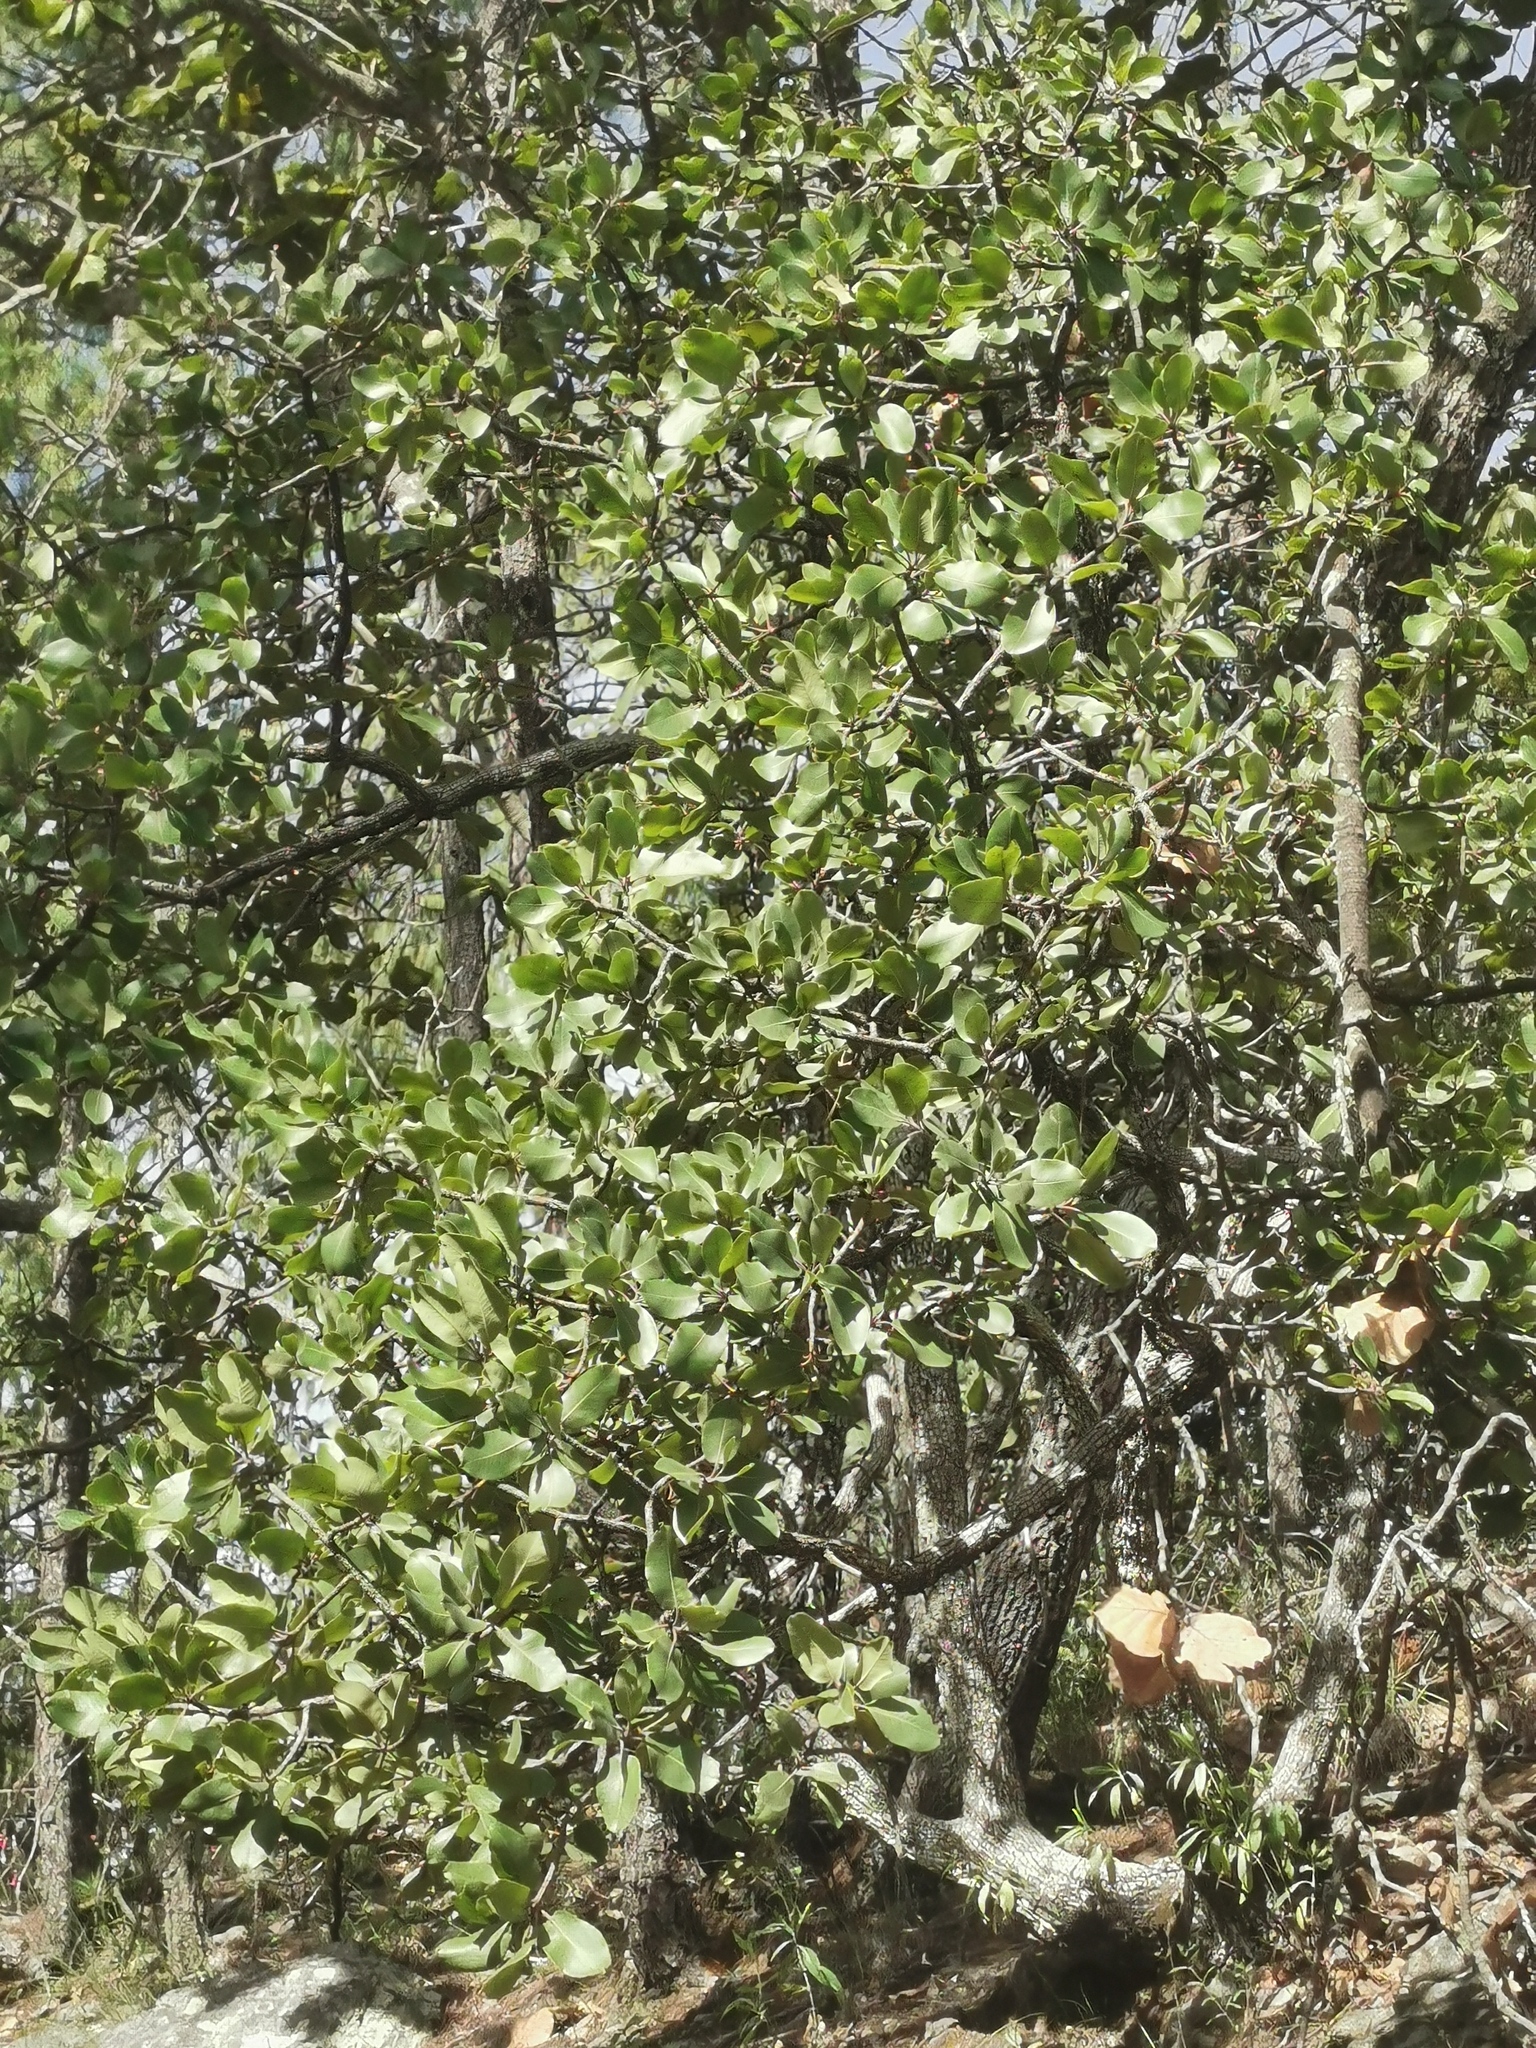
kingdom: Plantae
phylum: Tracheophyta
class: Magnoliopsida
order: Fagales
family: Fagaceae
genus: Quercus
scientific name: Quercus jonesii
